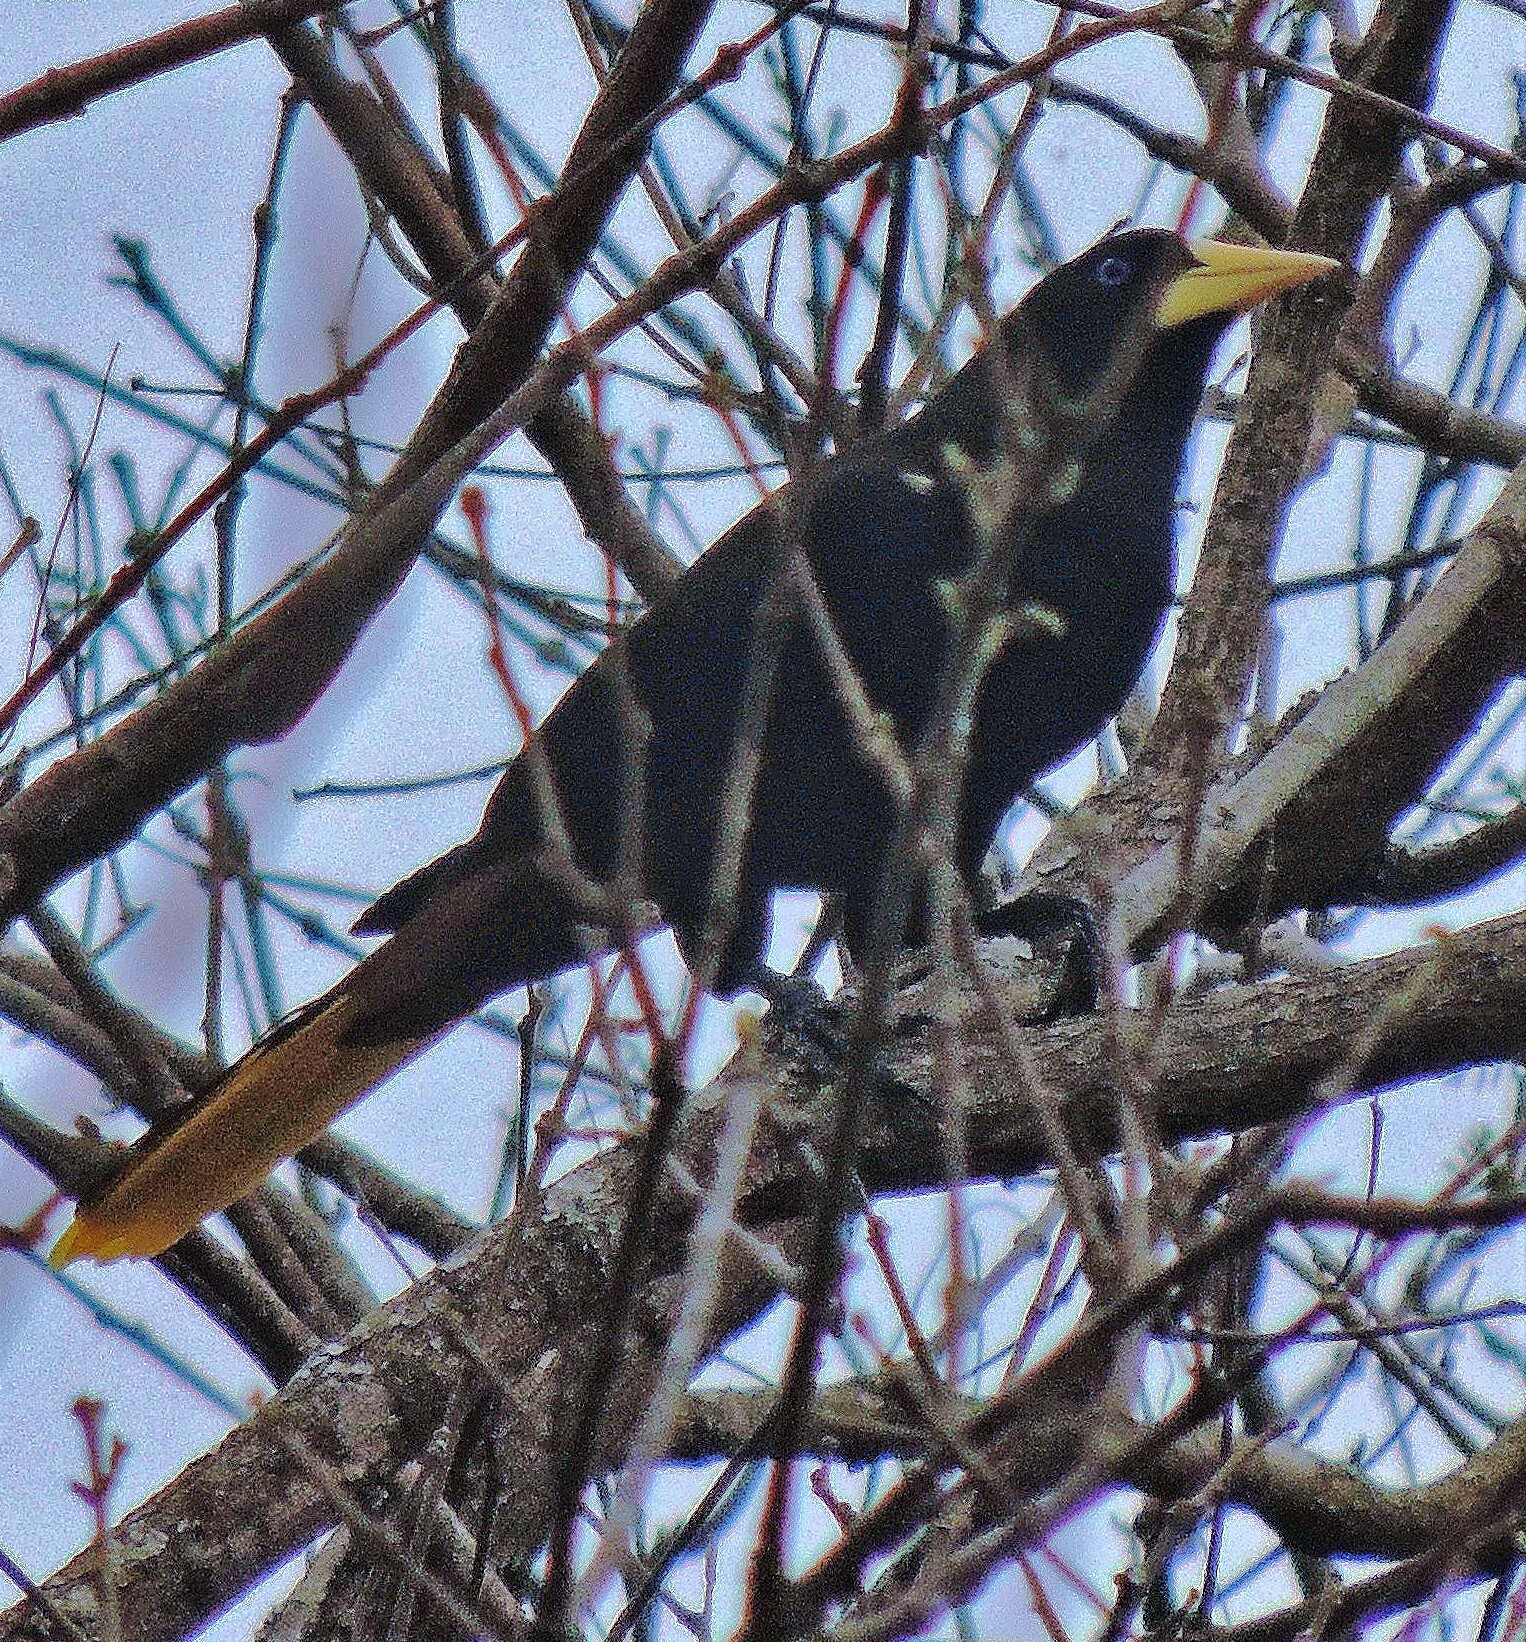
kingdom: Animalia
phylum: Chordata
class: Aves
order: Passeriformes
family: Icteridae
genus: Psarocolius
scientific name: Psarocolius decumanus
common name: Crested oropendola
